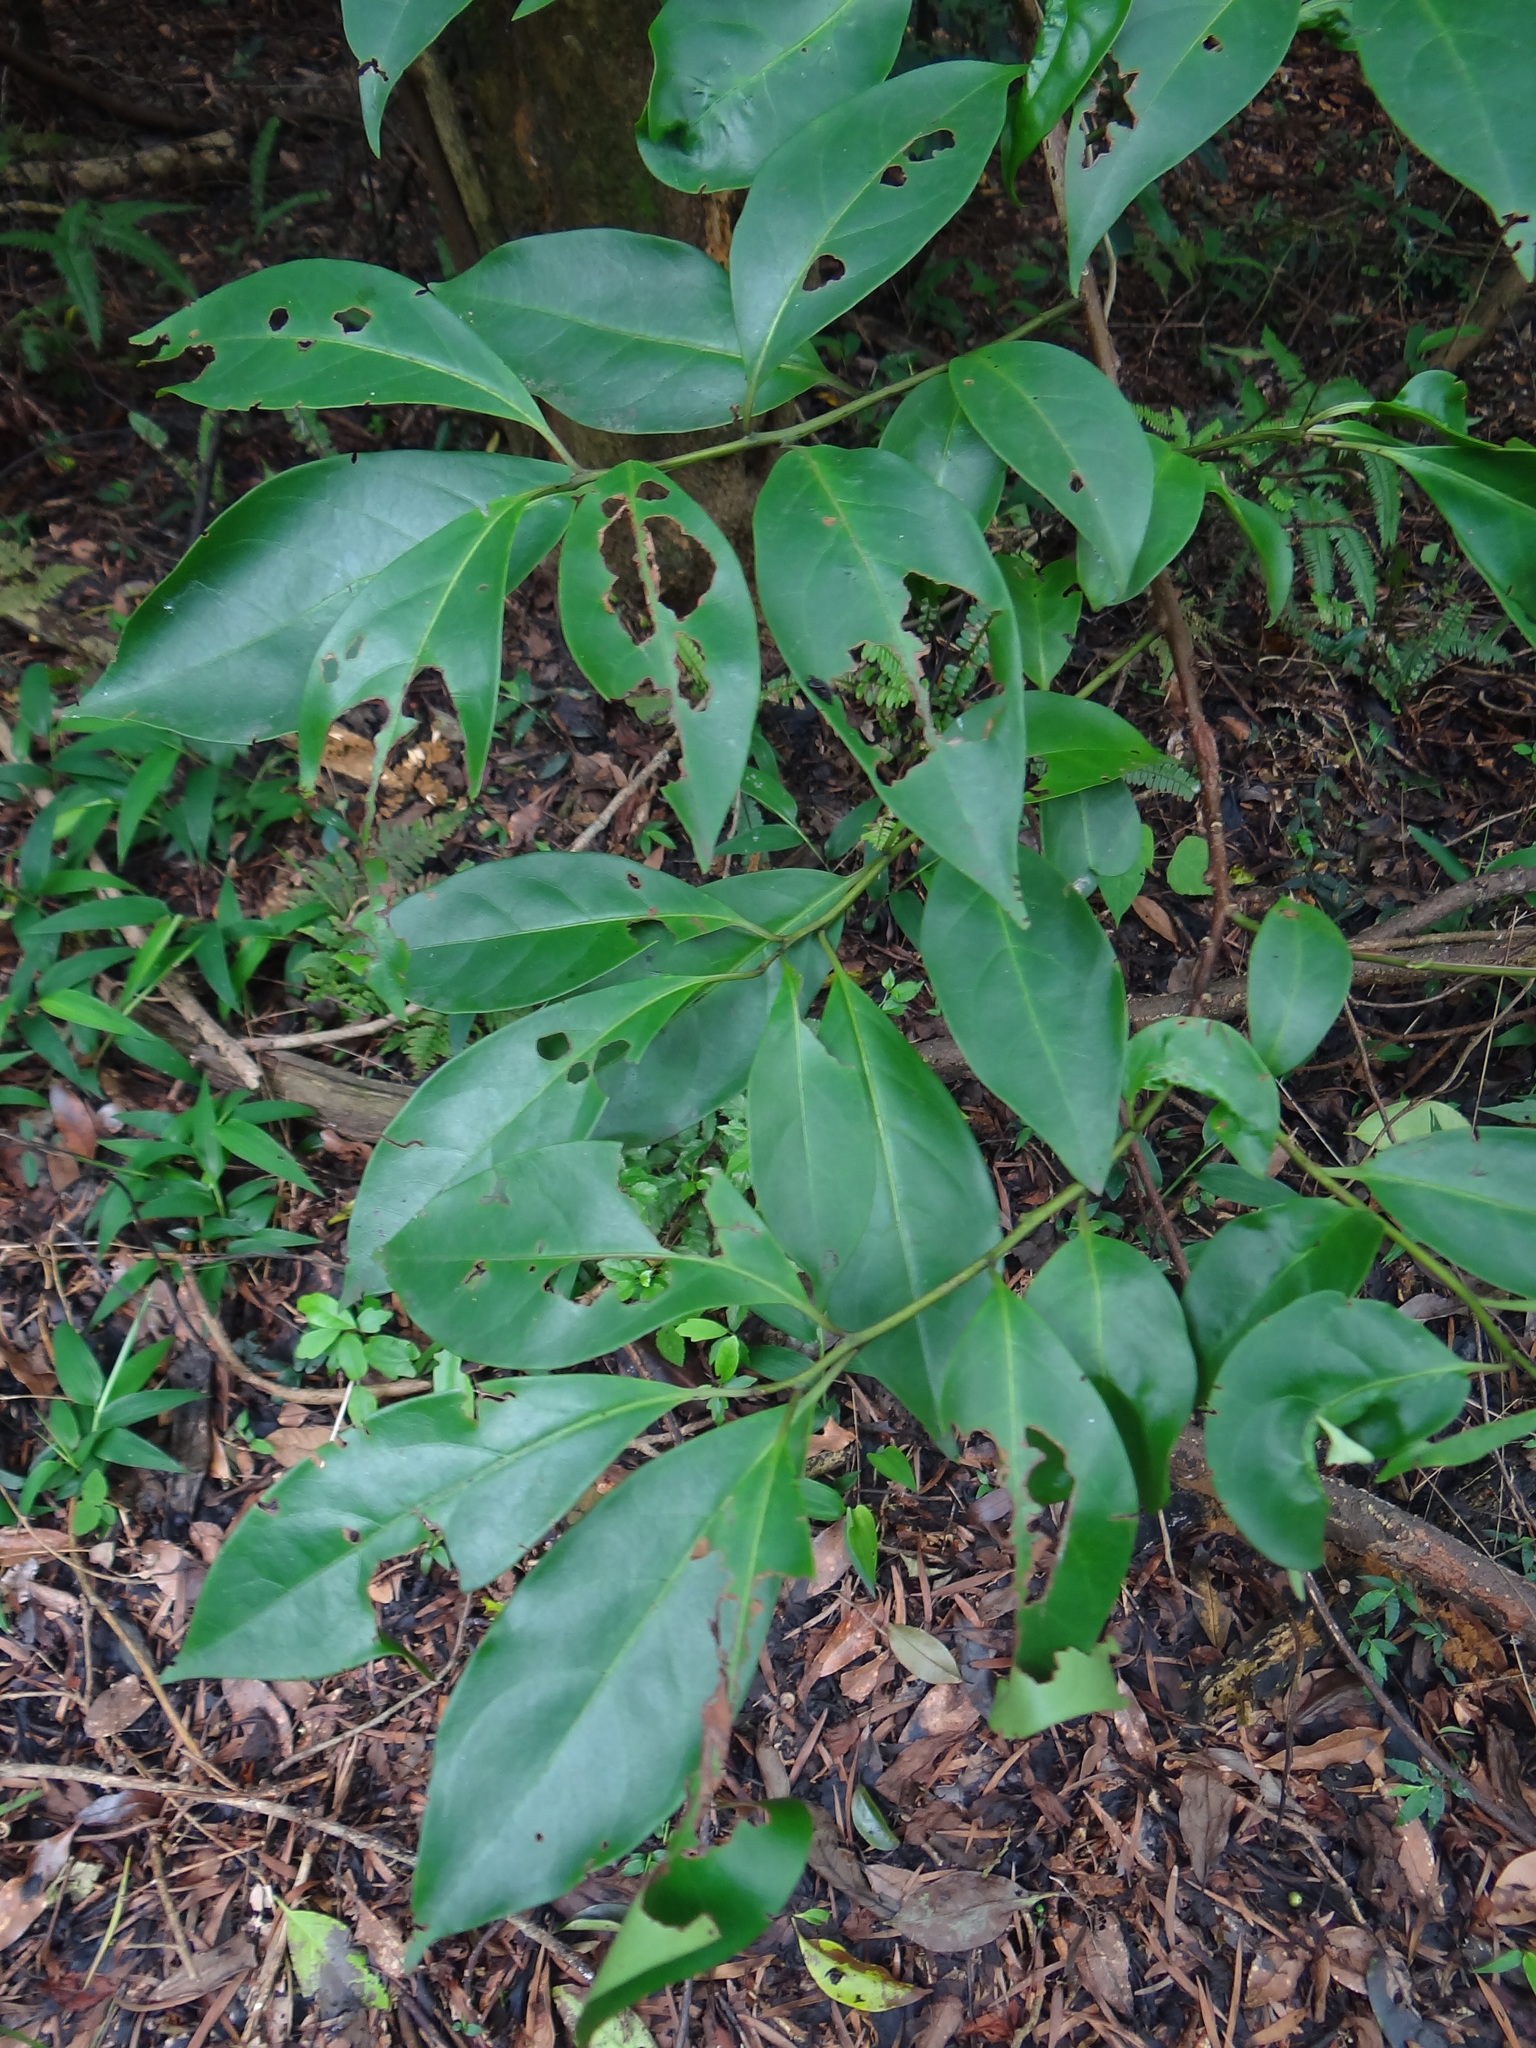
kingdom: Plantae
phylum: Tracheophyta
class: Magnoliopsida
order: Boraginales
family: Ehretiaceae
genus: Ehretia
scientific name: Ehretia longiflora
